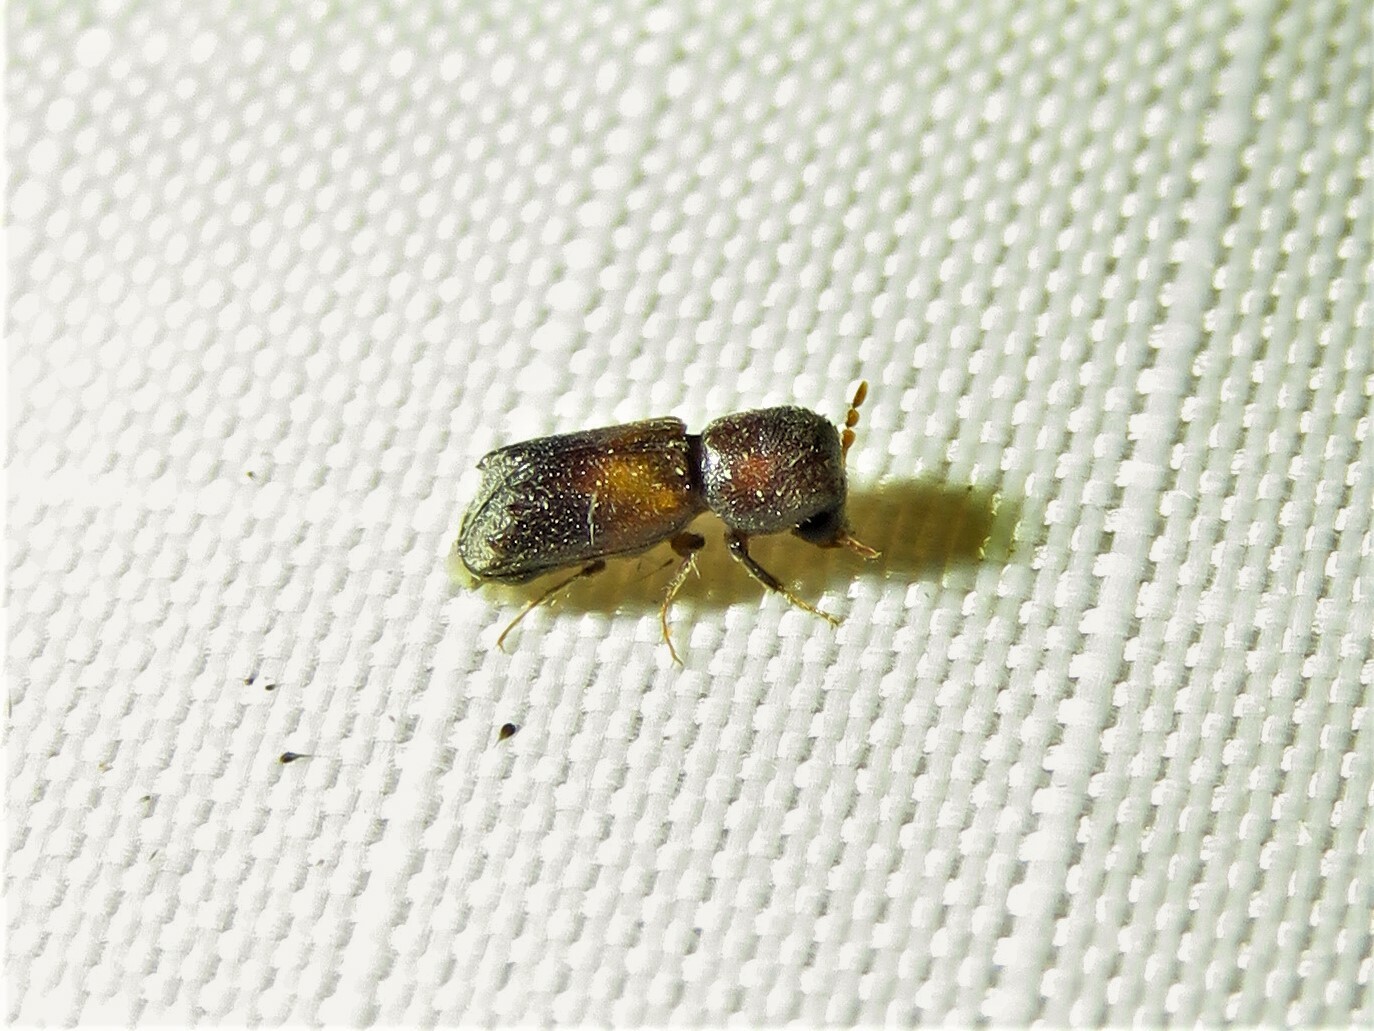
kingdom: Animalia
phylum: Arthropoda
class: Insecta
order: Coleoptera
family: Bostrichidae
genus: Xylobiops
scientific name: Xylobiops sextuberculatus
